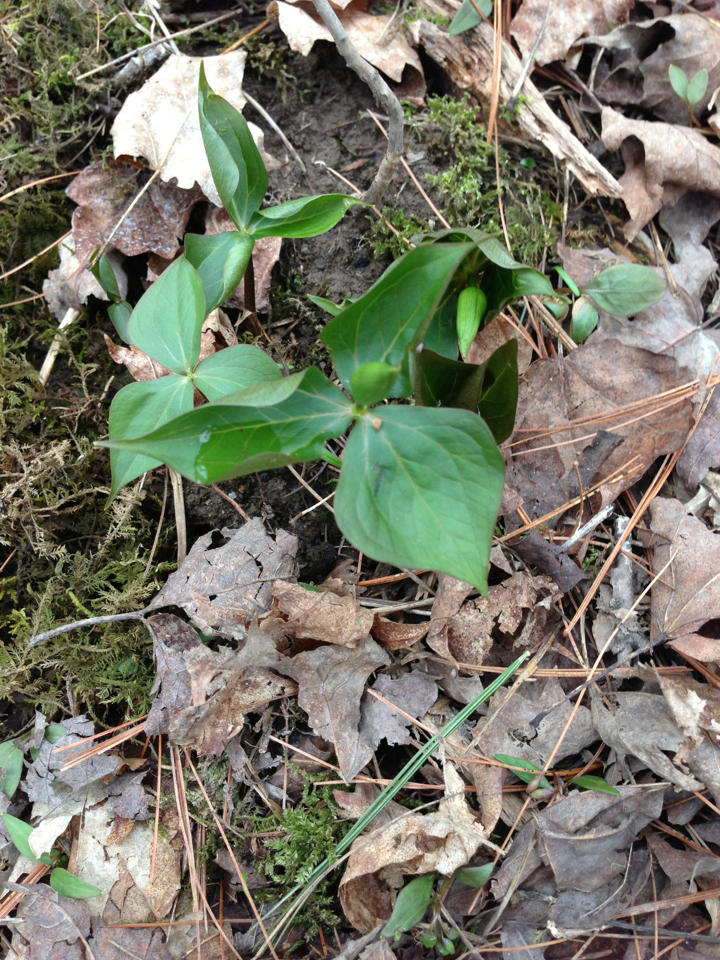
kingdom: Plantae
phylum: Tracheophyta
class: Liliopsida
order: Liliales
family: Melanthiaceae
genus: Trillium
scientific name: Trillium erectum
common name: Purple trillium
